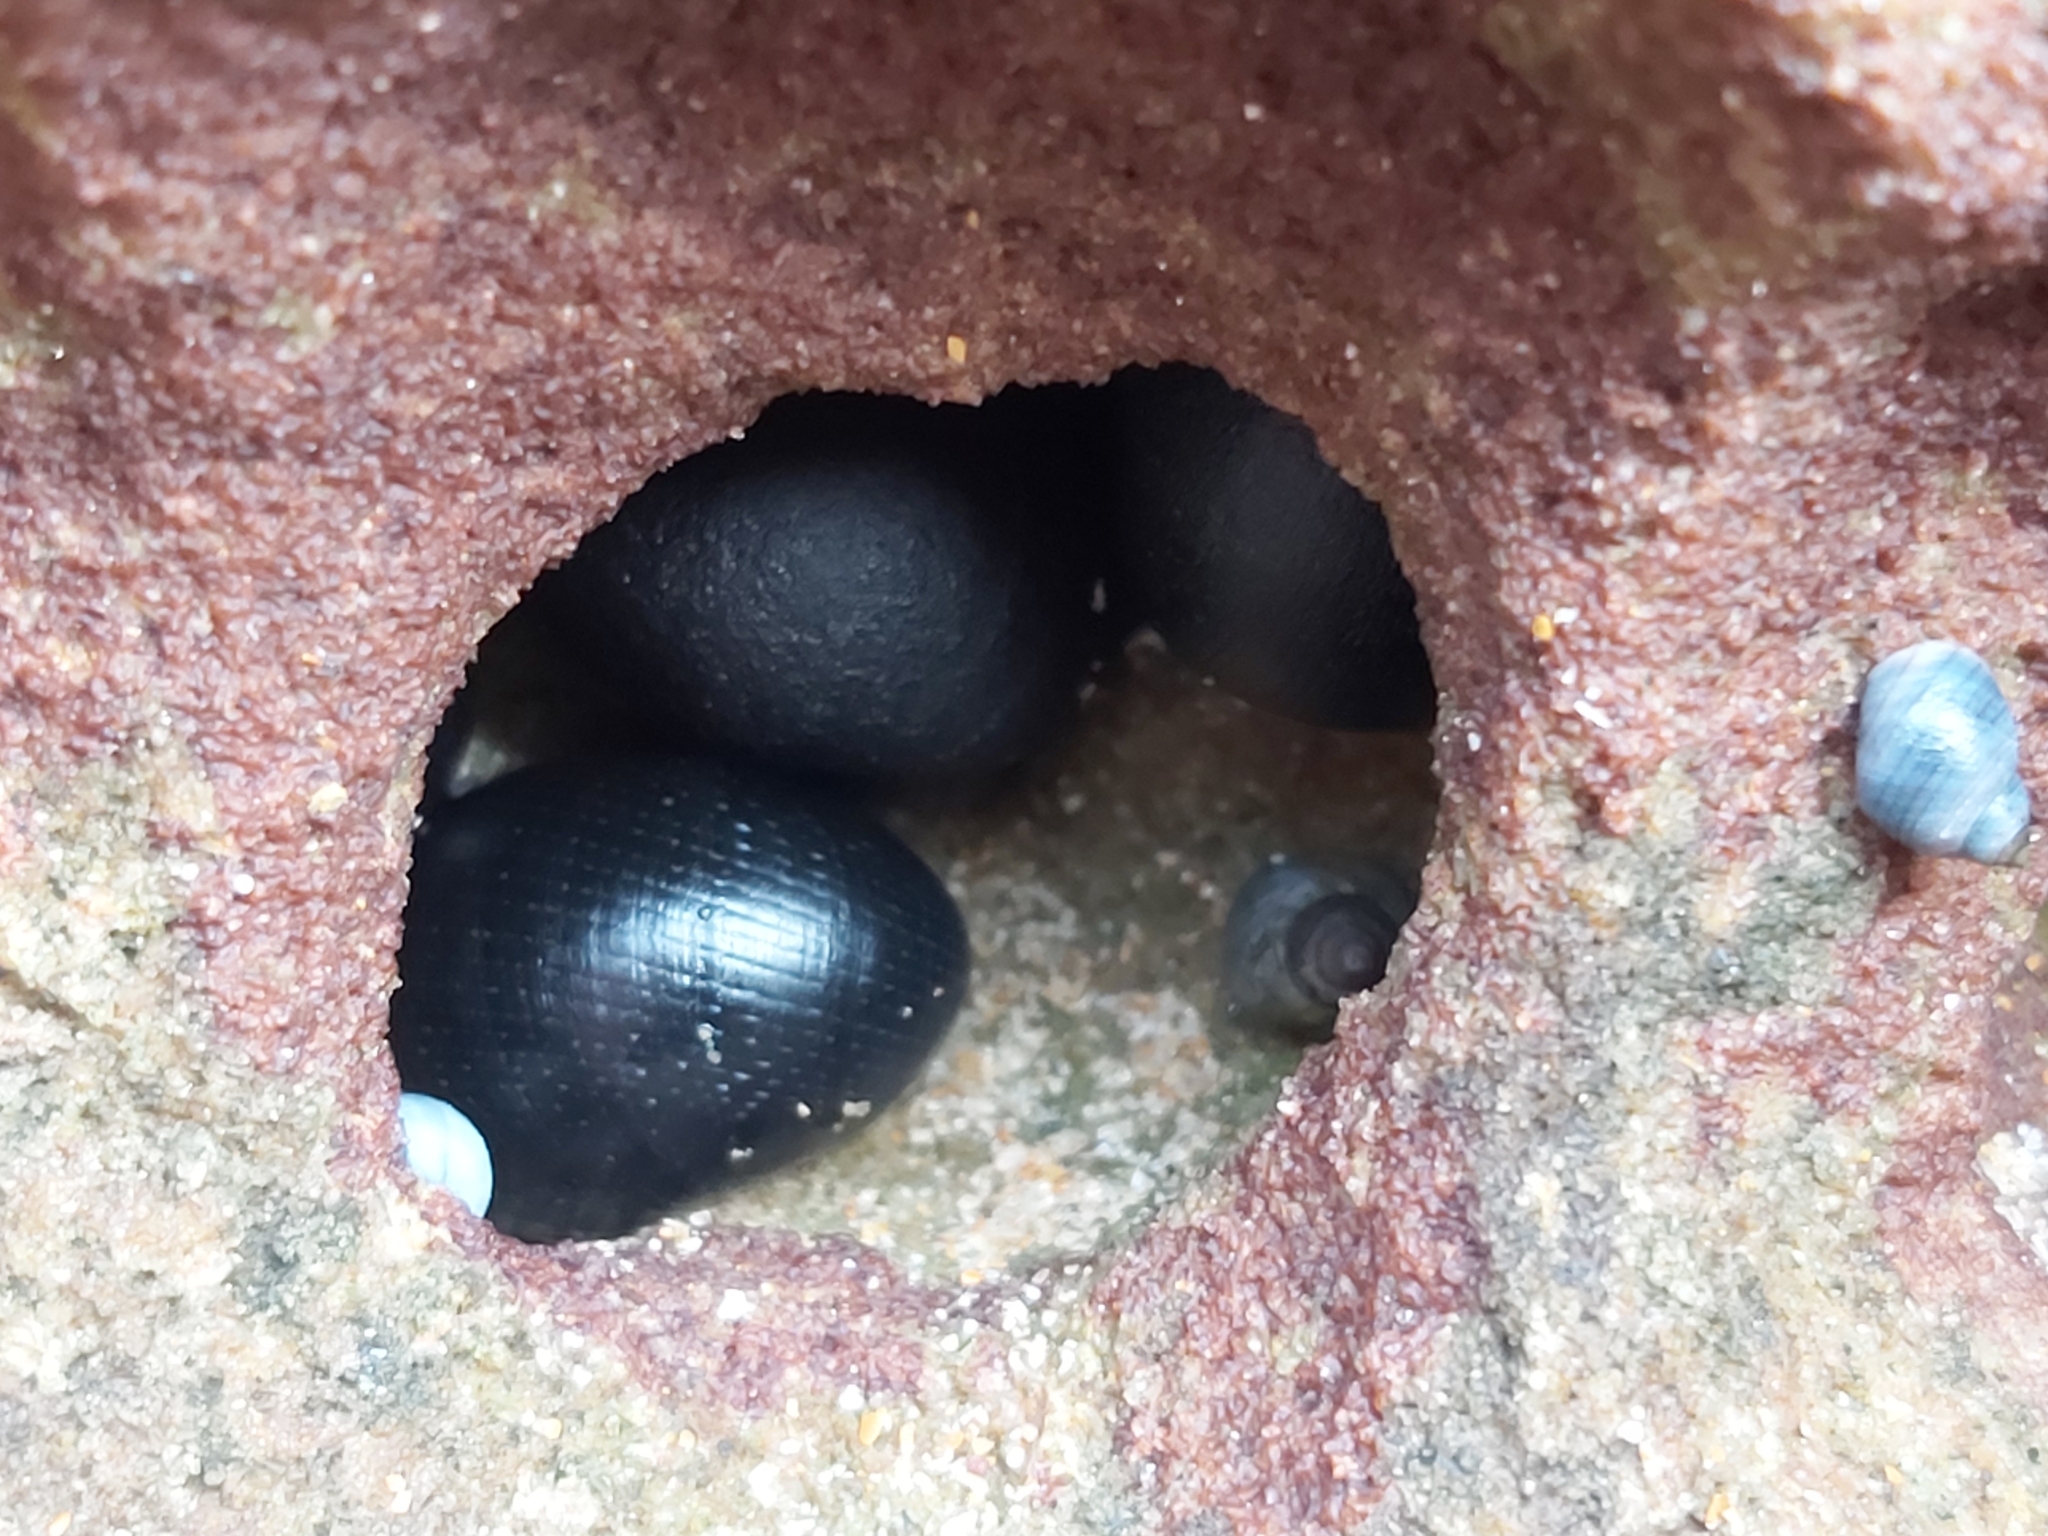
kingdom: Animalia
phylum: Mollusca
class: Gastropoda
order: Cycloneritida
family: Neritidae
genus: Nerita
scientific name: Nerita melanotragus
